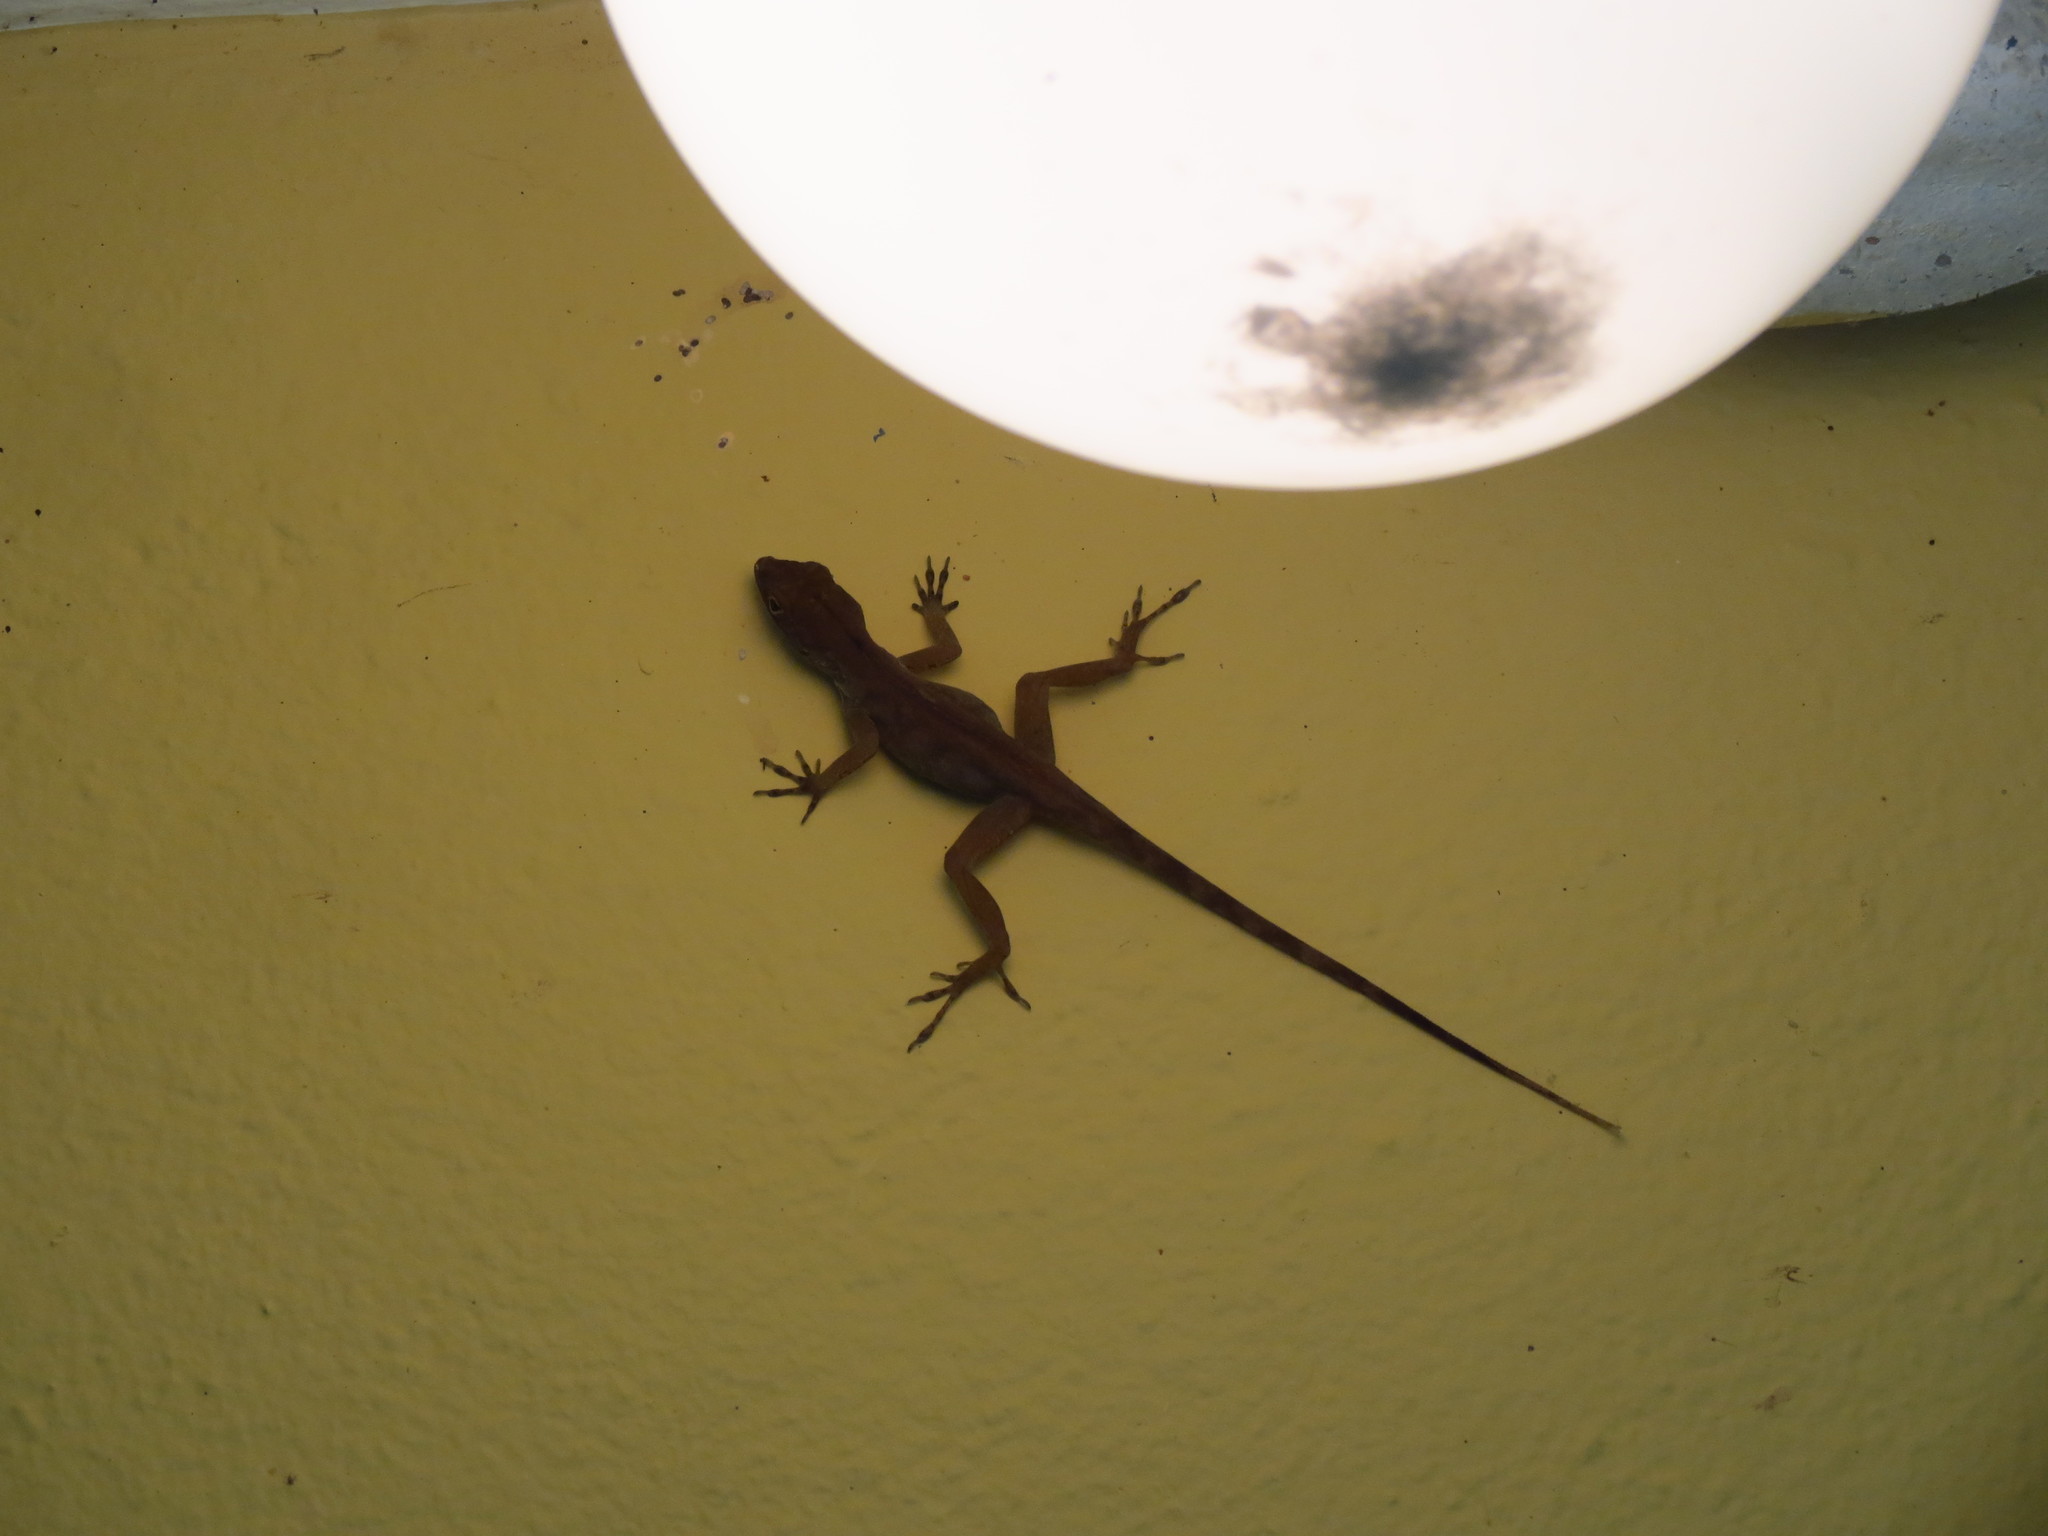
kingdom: Animalia
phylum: Chordata
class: Squamata
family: Dactyloidae
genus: Anolis
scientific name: Anolis cristatellus
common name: Crested anole
